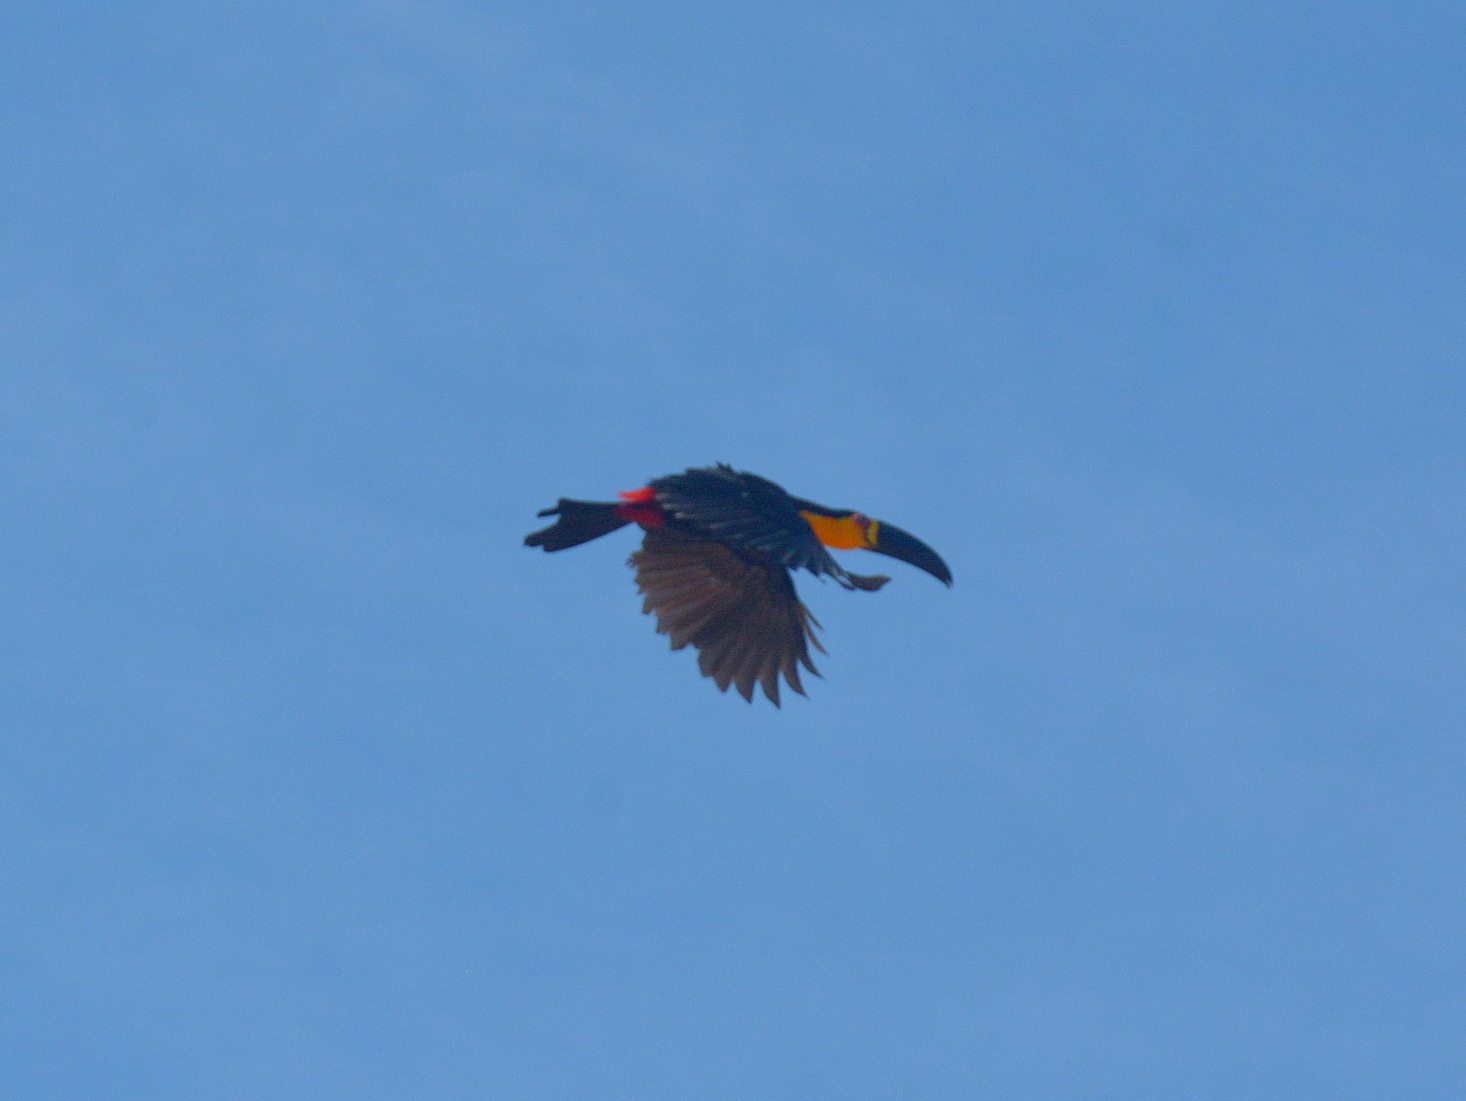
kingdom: Animalia
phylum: Chordata
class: Aves
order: Piciformes
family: Ramphastidae
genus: Ramphastos
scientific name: Ramphastos vitellinus
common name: Channel-billed toucan
